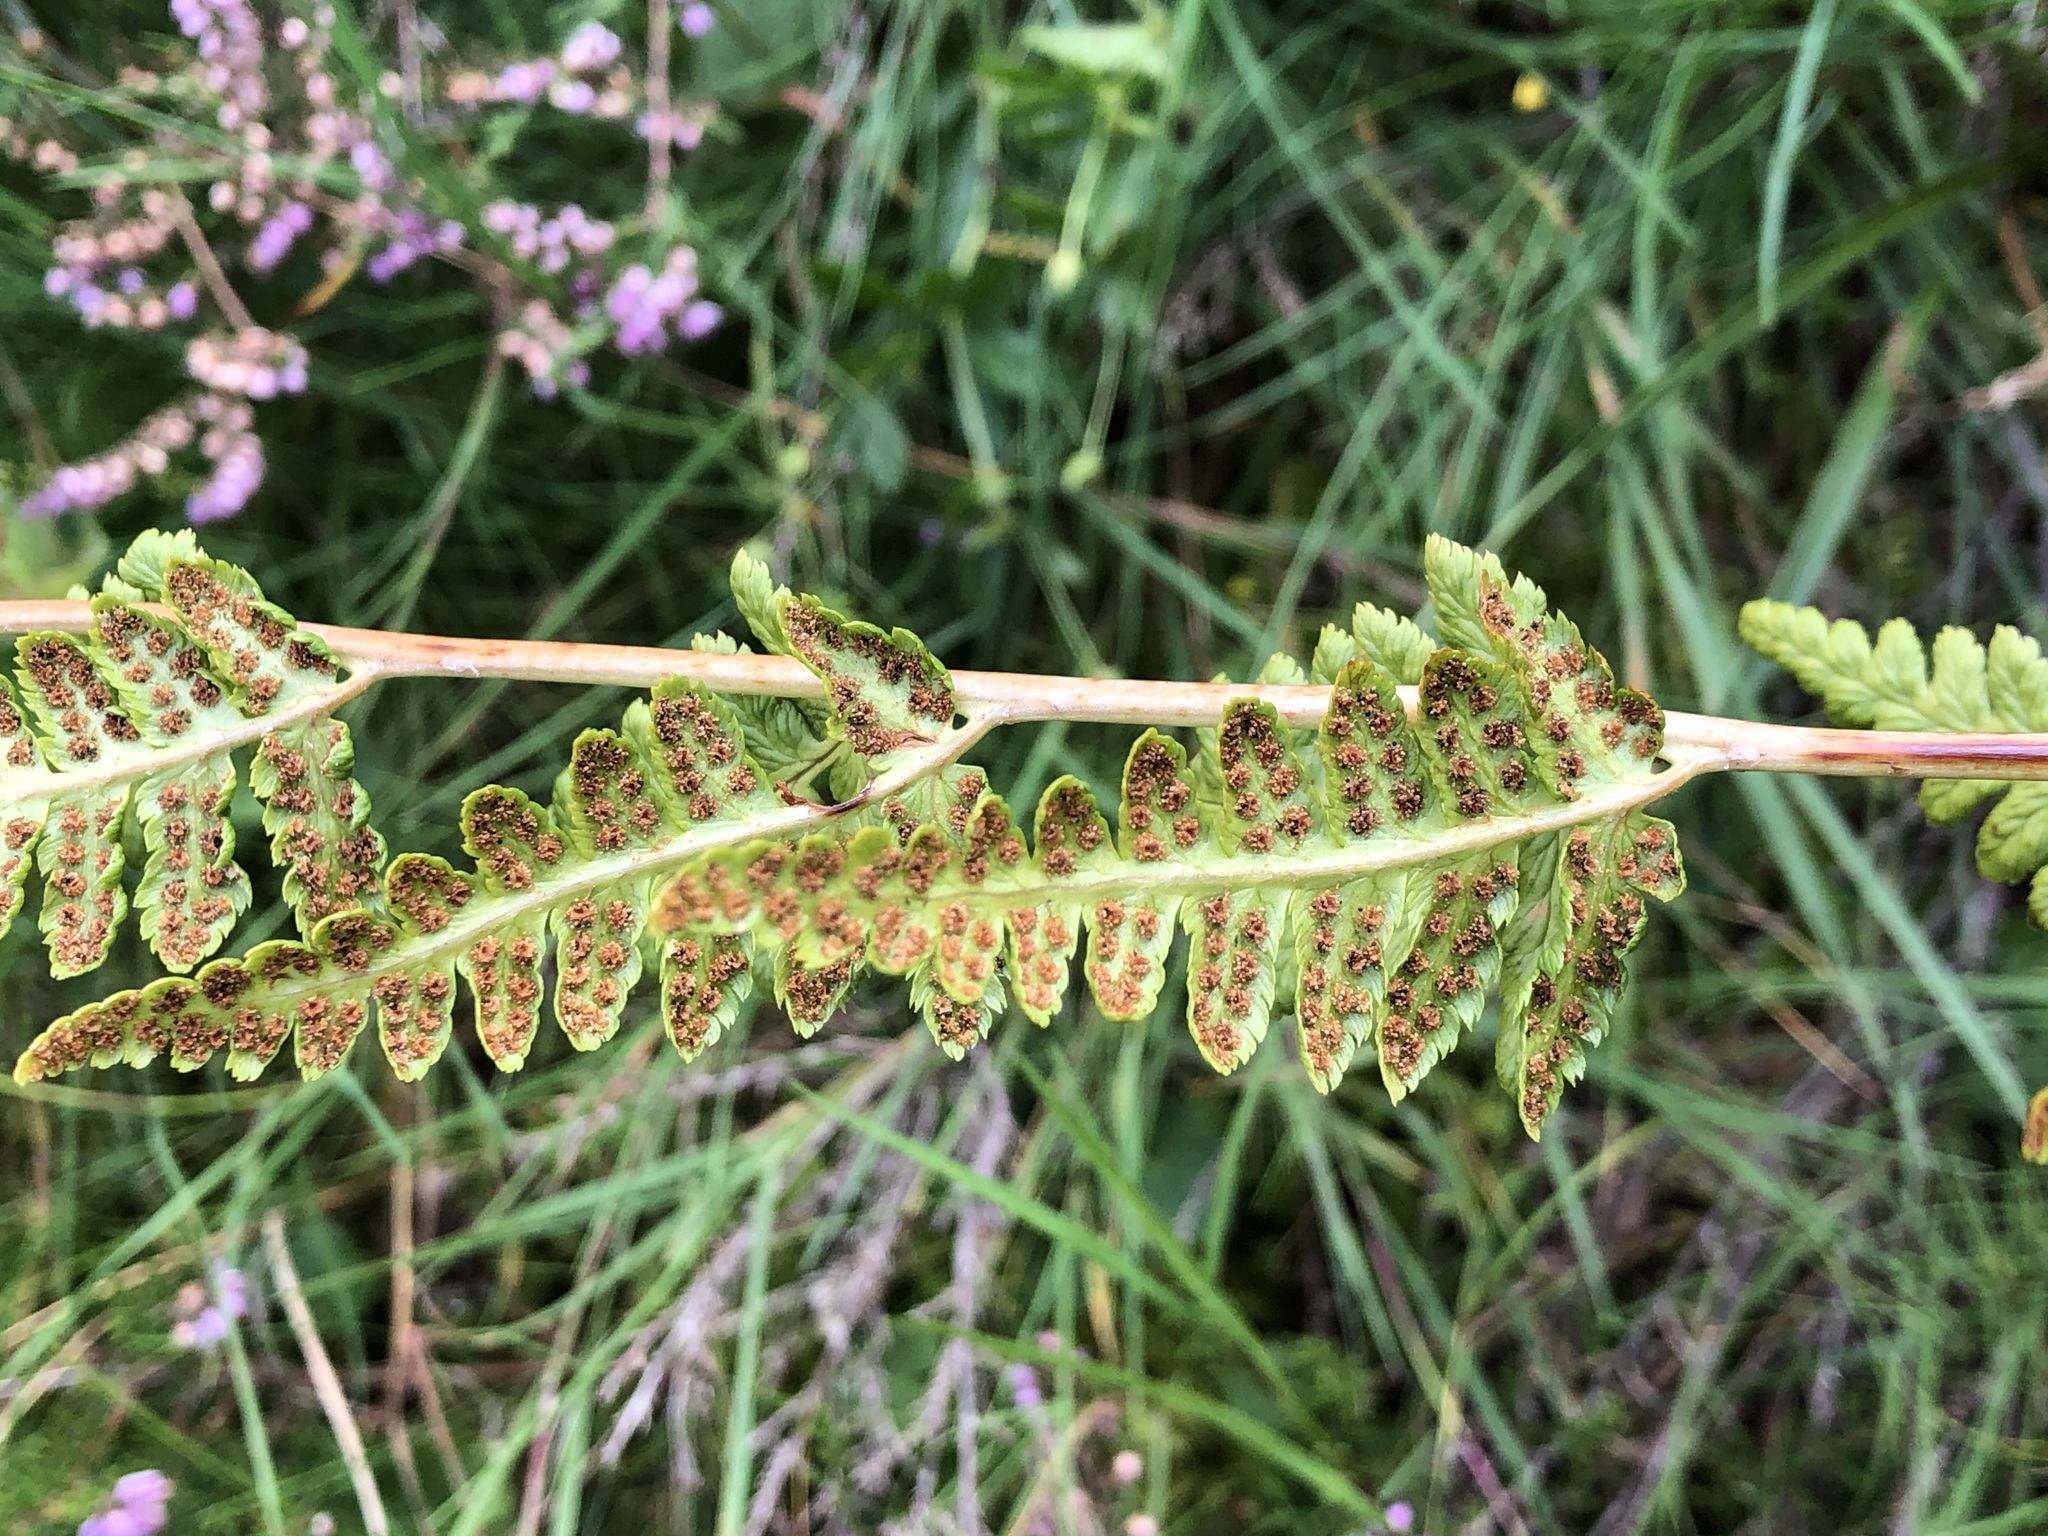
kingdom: Plantae
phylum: Tracheophyta
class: Polypodiopsida
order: Polypodiales
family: Dryopteridaceae
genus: Dryopteris
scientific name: Dryopteris cristata
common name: Crested wood fern
